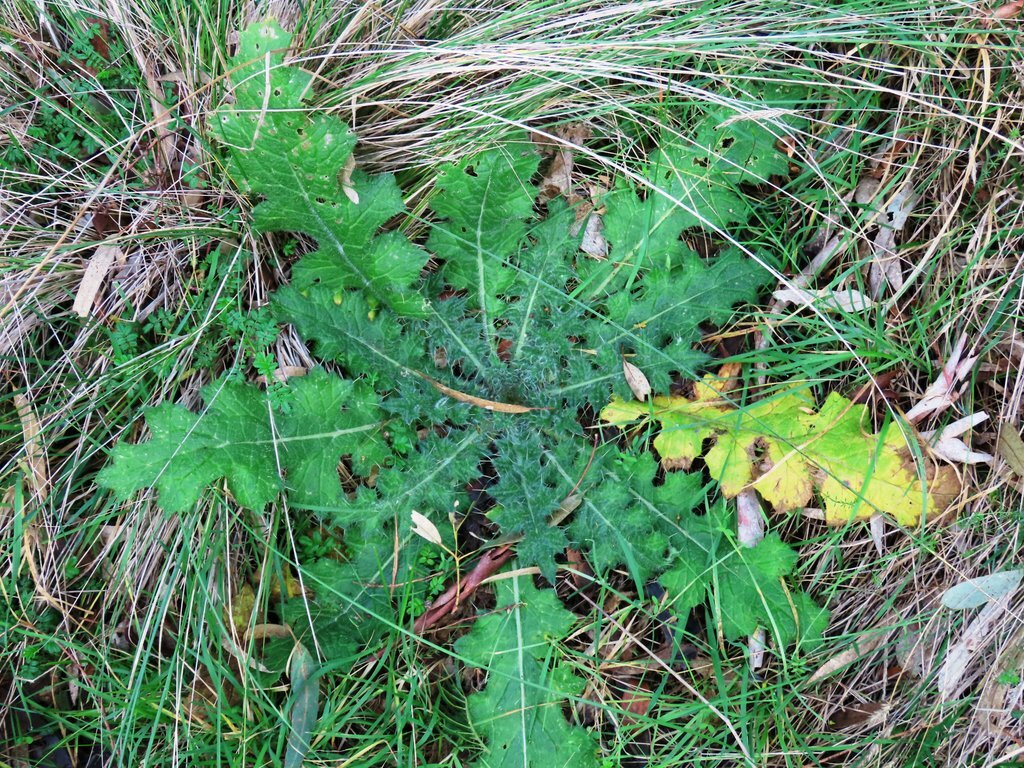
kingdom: Plantae
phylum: Tracheophyta
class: Magnoliopsida
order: Asterales
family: Asteraceae
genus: Cirsium
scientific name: Cirsium vulgare
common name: Bull thistle
